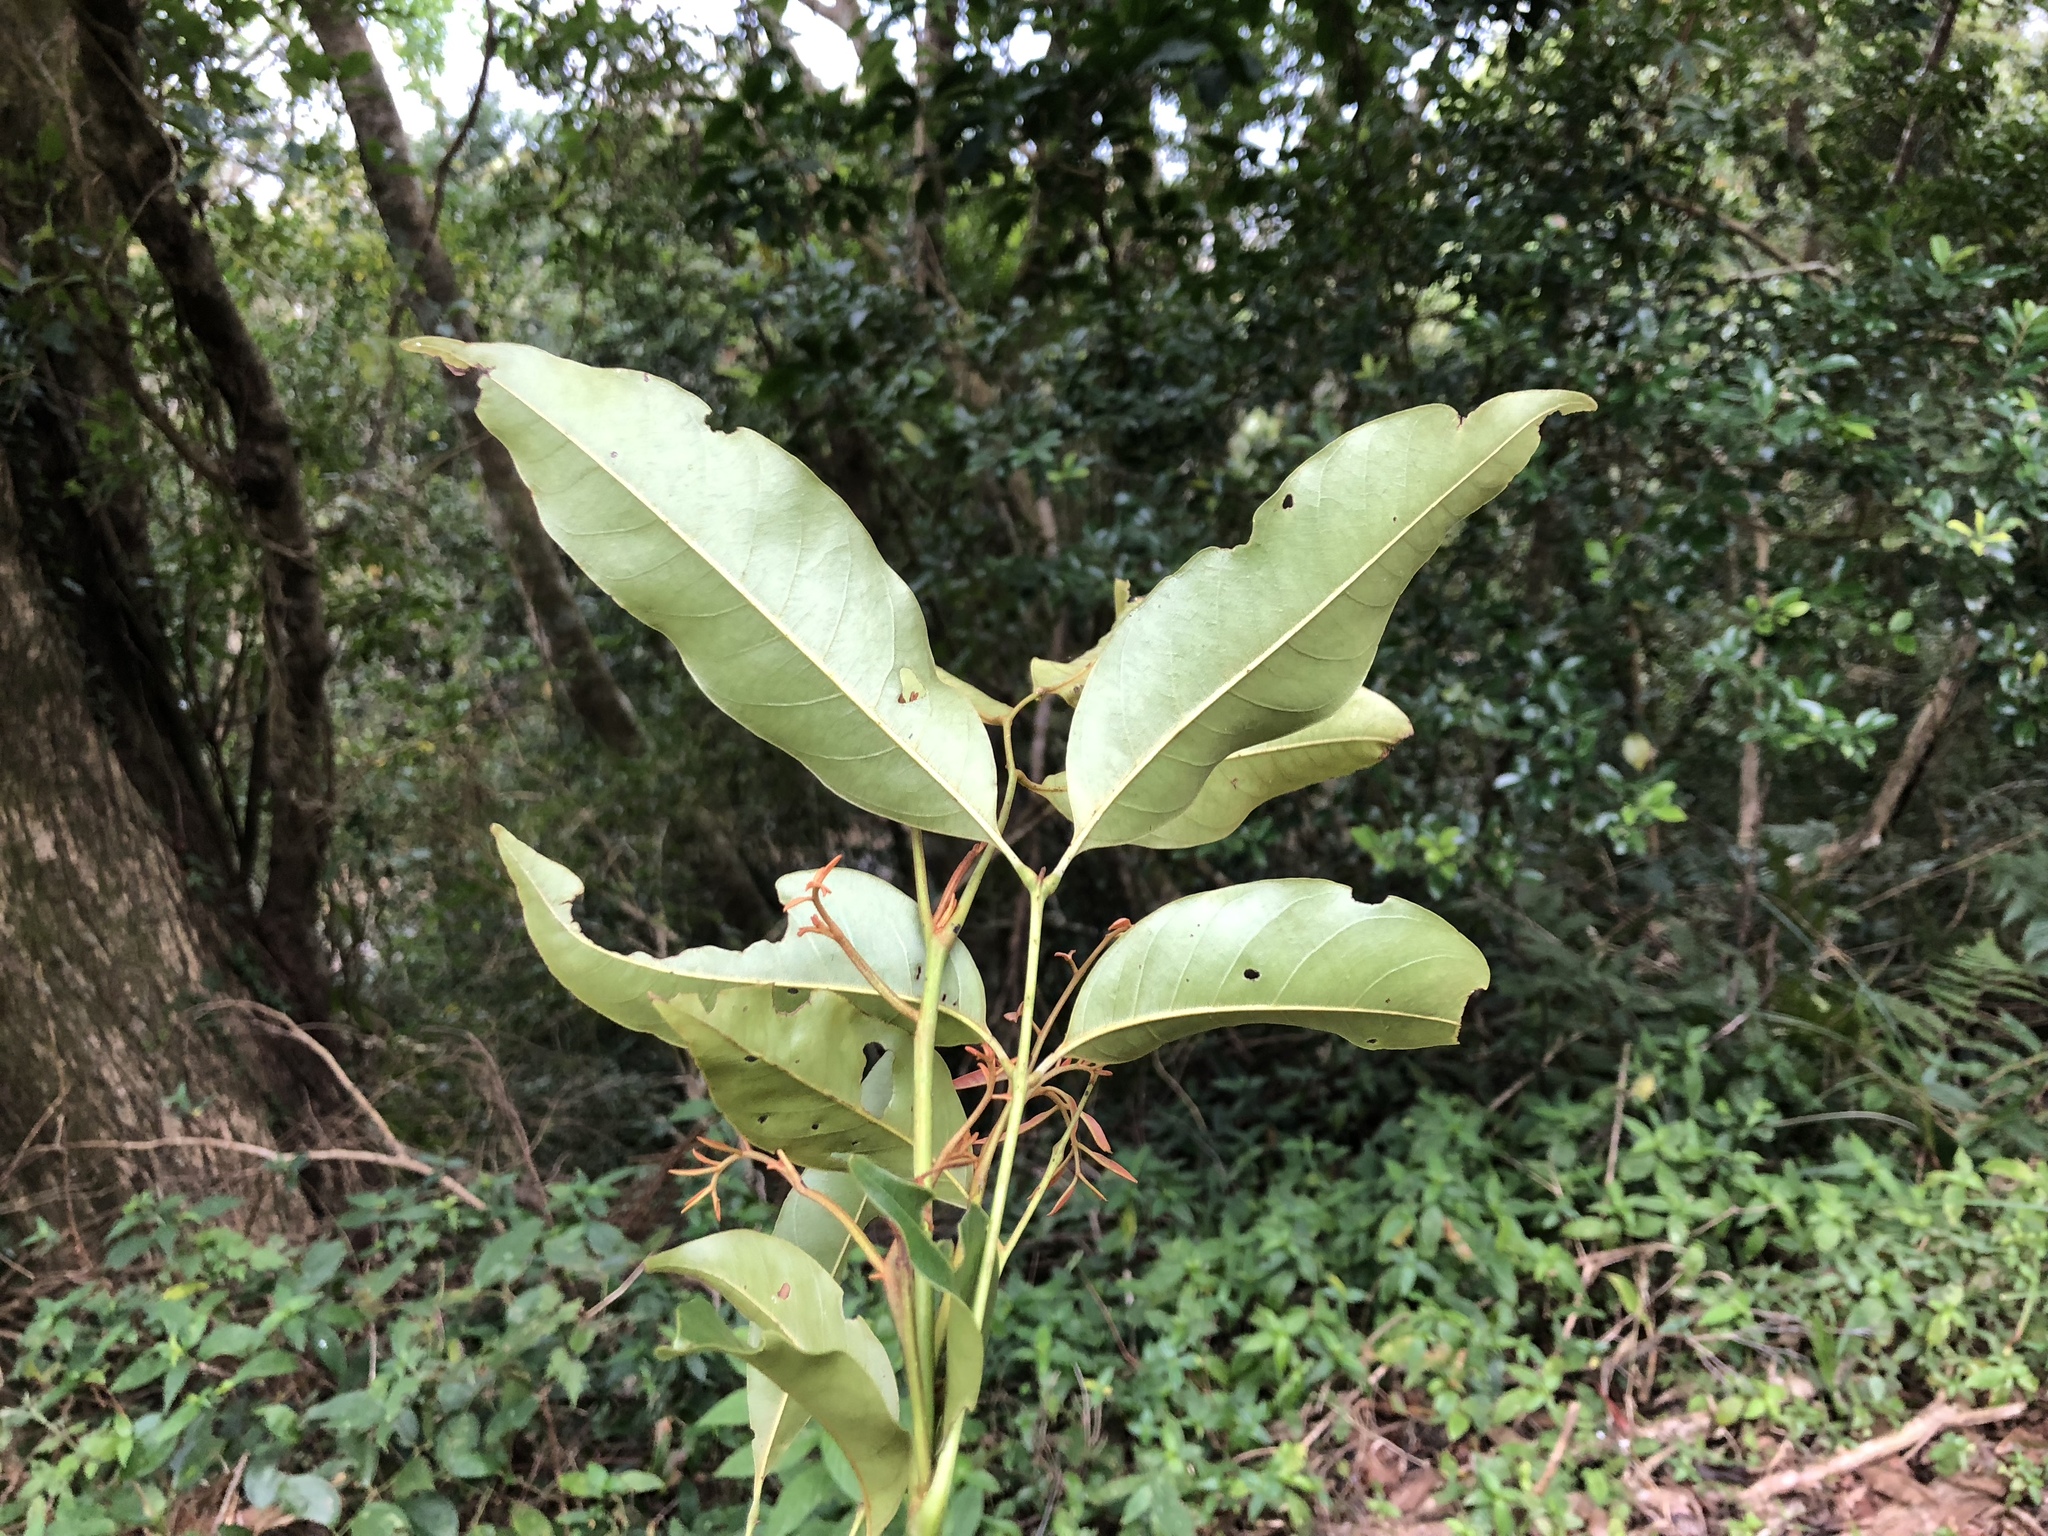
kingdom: Plantae
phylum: Tracheophyta
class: Magnoliopsida
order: Fagales
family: Juglandaceae
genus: Engelhardia
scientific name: Engelhardia roxburghiana
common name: Golden malay beam
